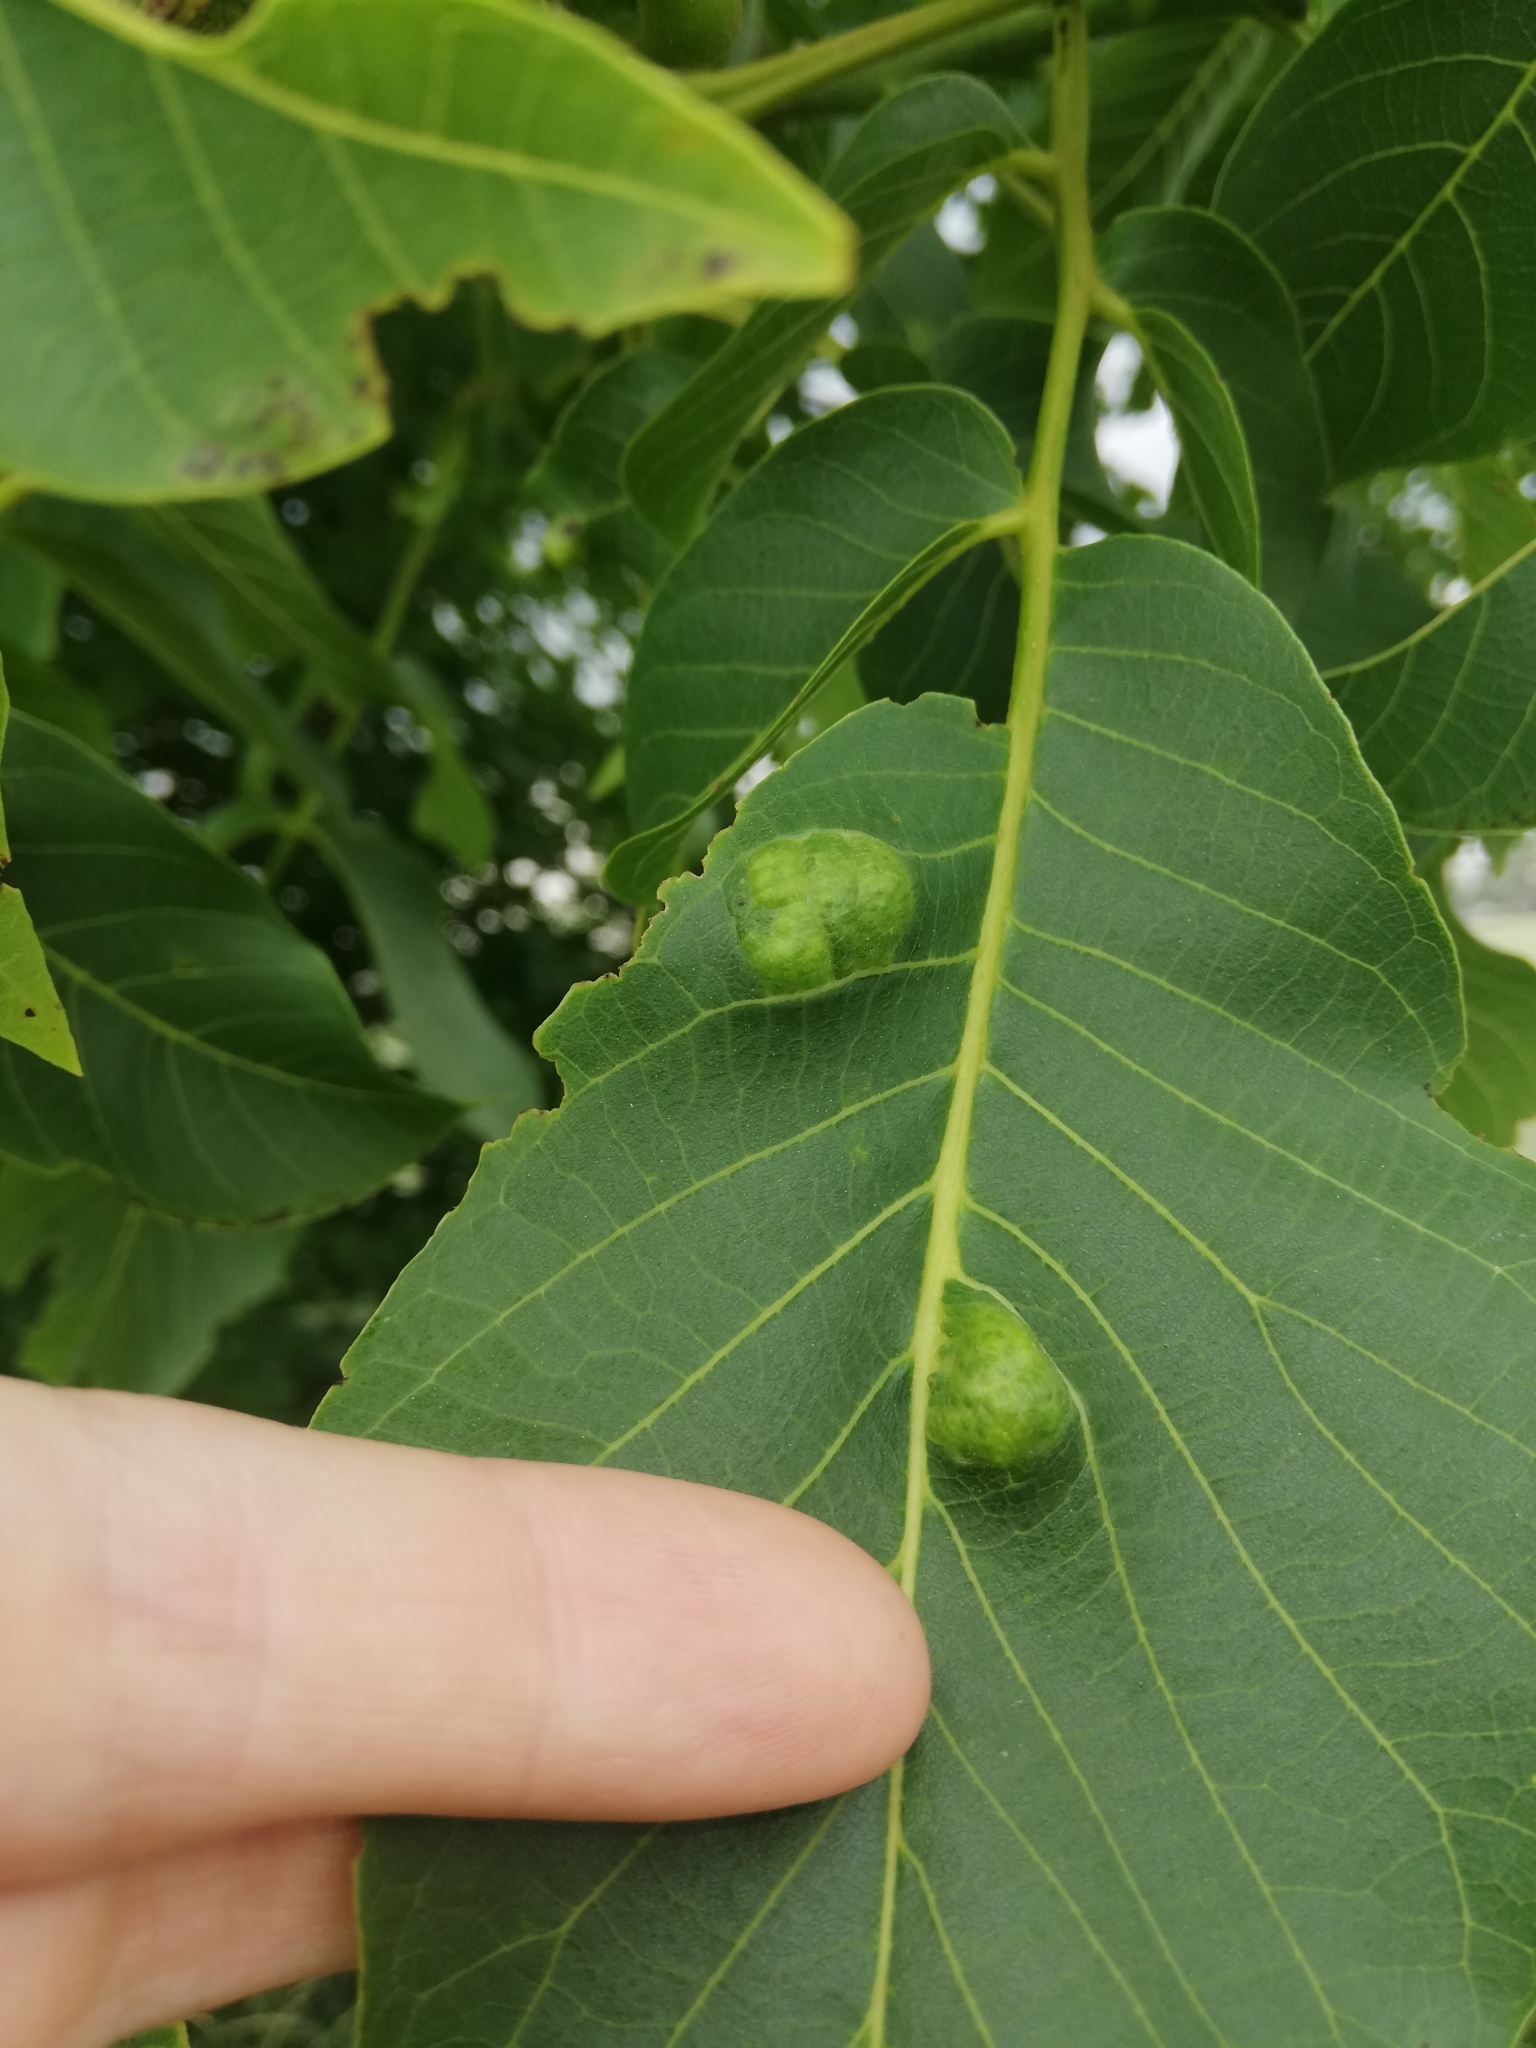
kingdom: Animalia
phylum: Arthropoda
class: Arachnida
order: Trombidiformes
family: Eriophyidae
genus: Aceria
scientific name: Aceria erinea
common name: Persian walnut erineum mite
